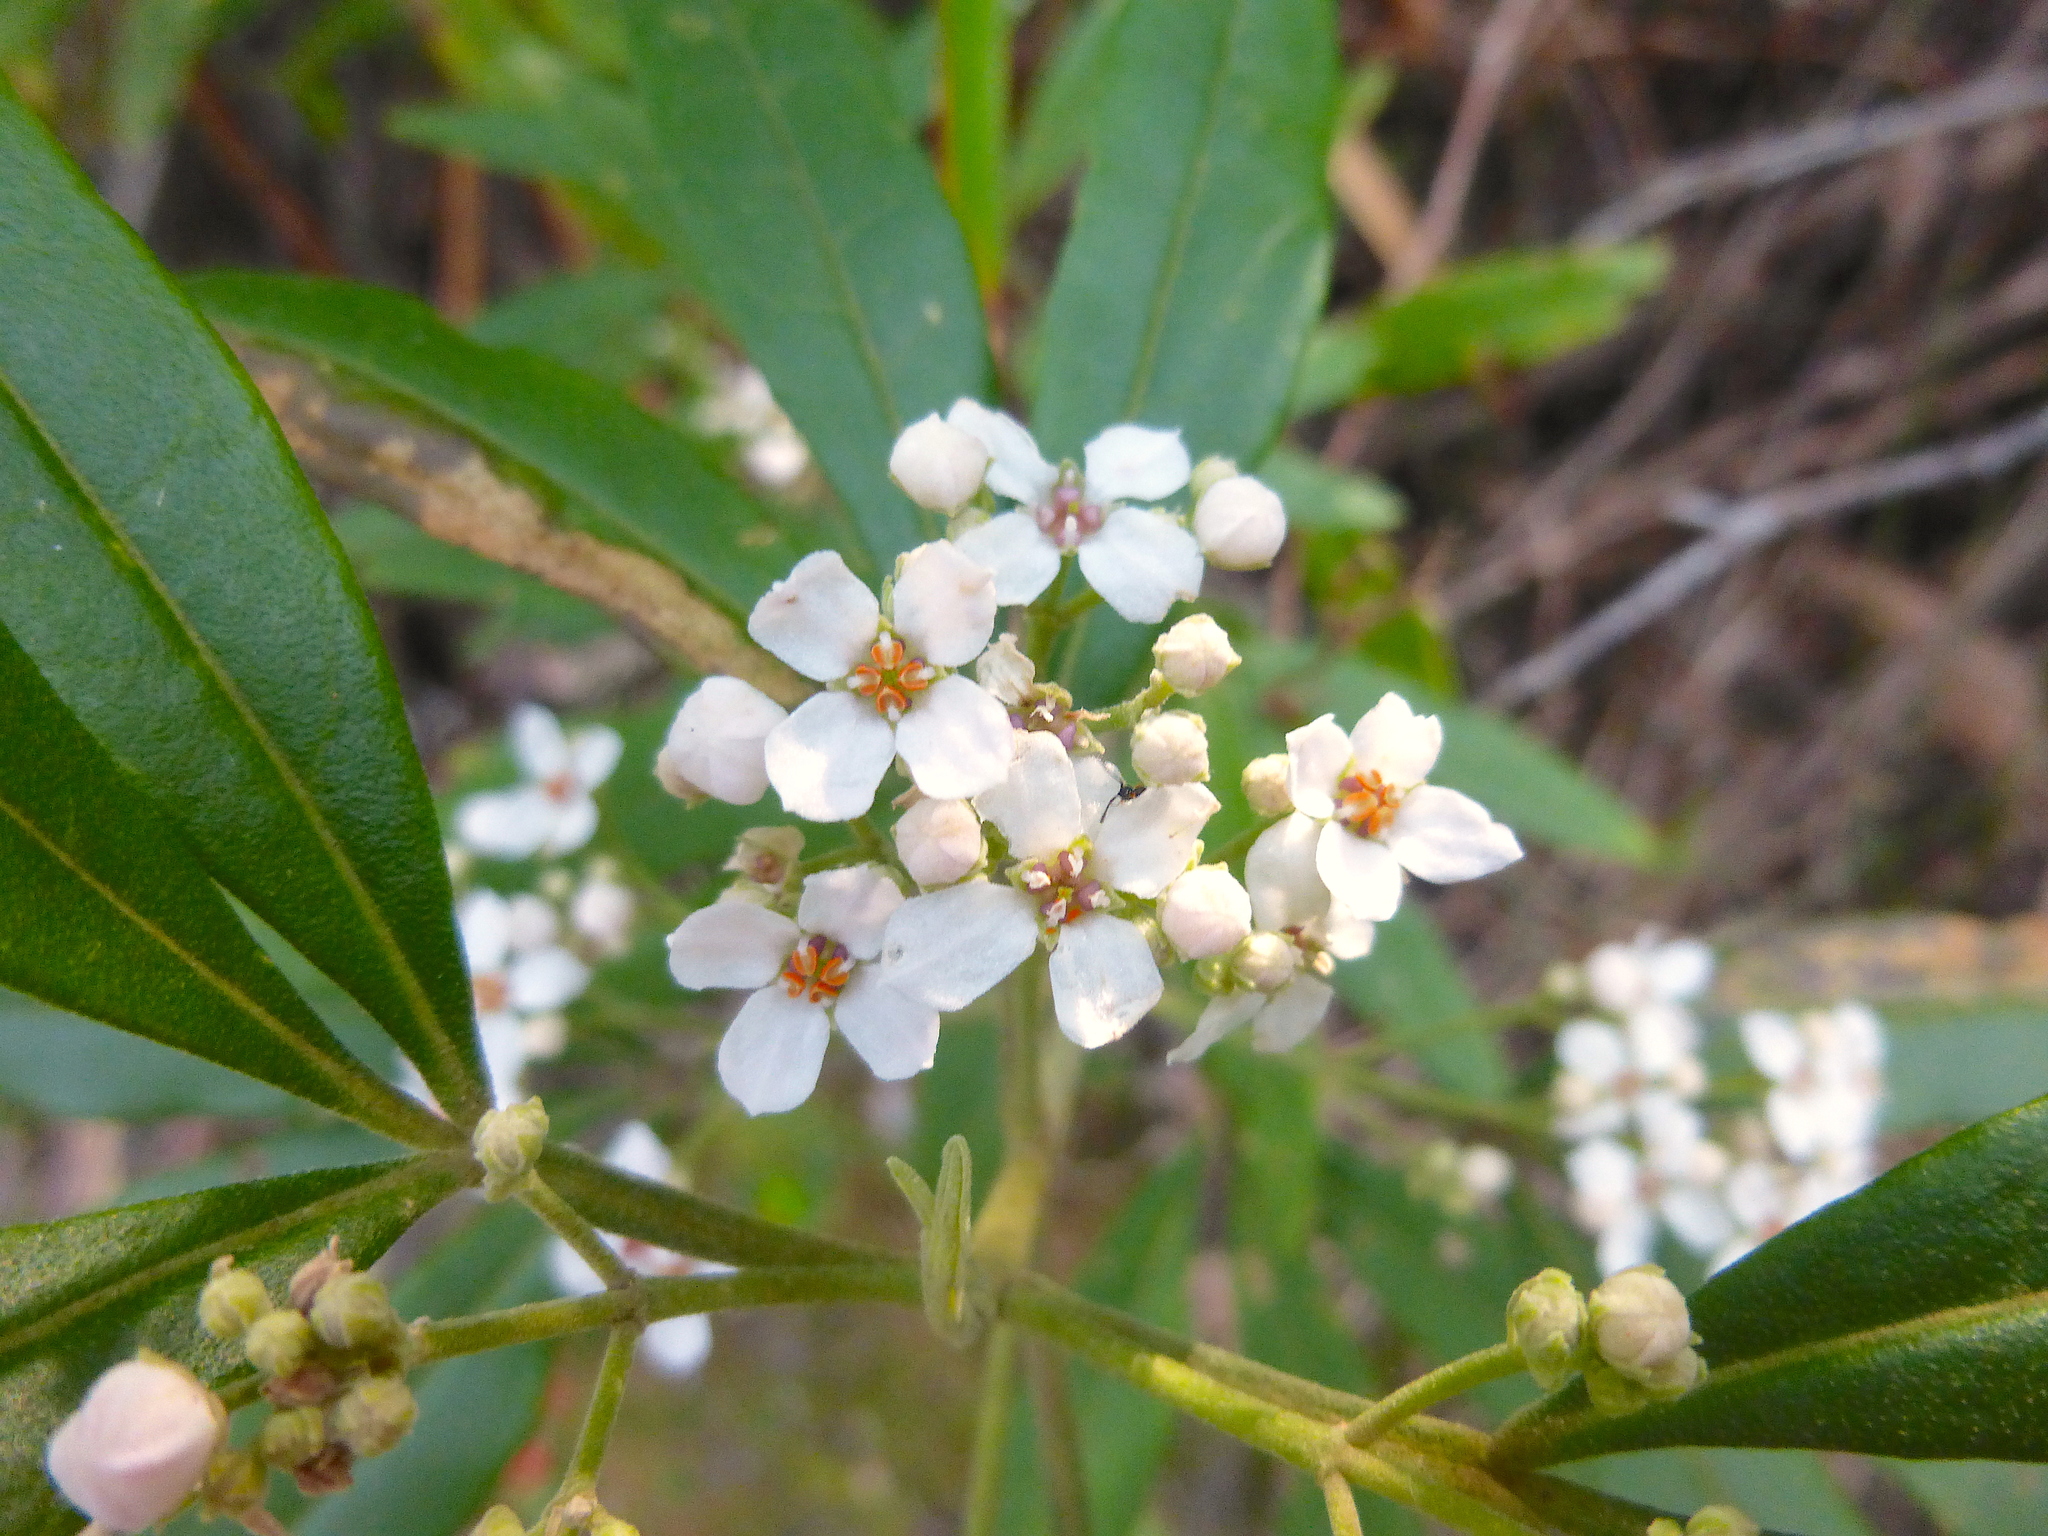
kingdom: Plantae
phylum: Tracheophyta
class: Magnoliopsida
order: Sapindales
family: Rutaceae
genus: Zieria
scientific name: Zieria arborescens
